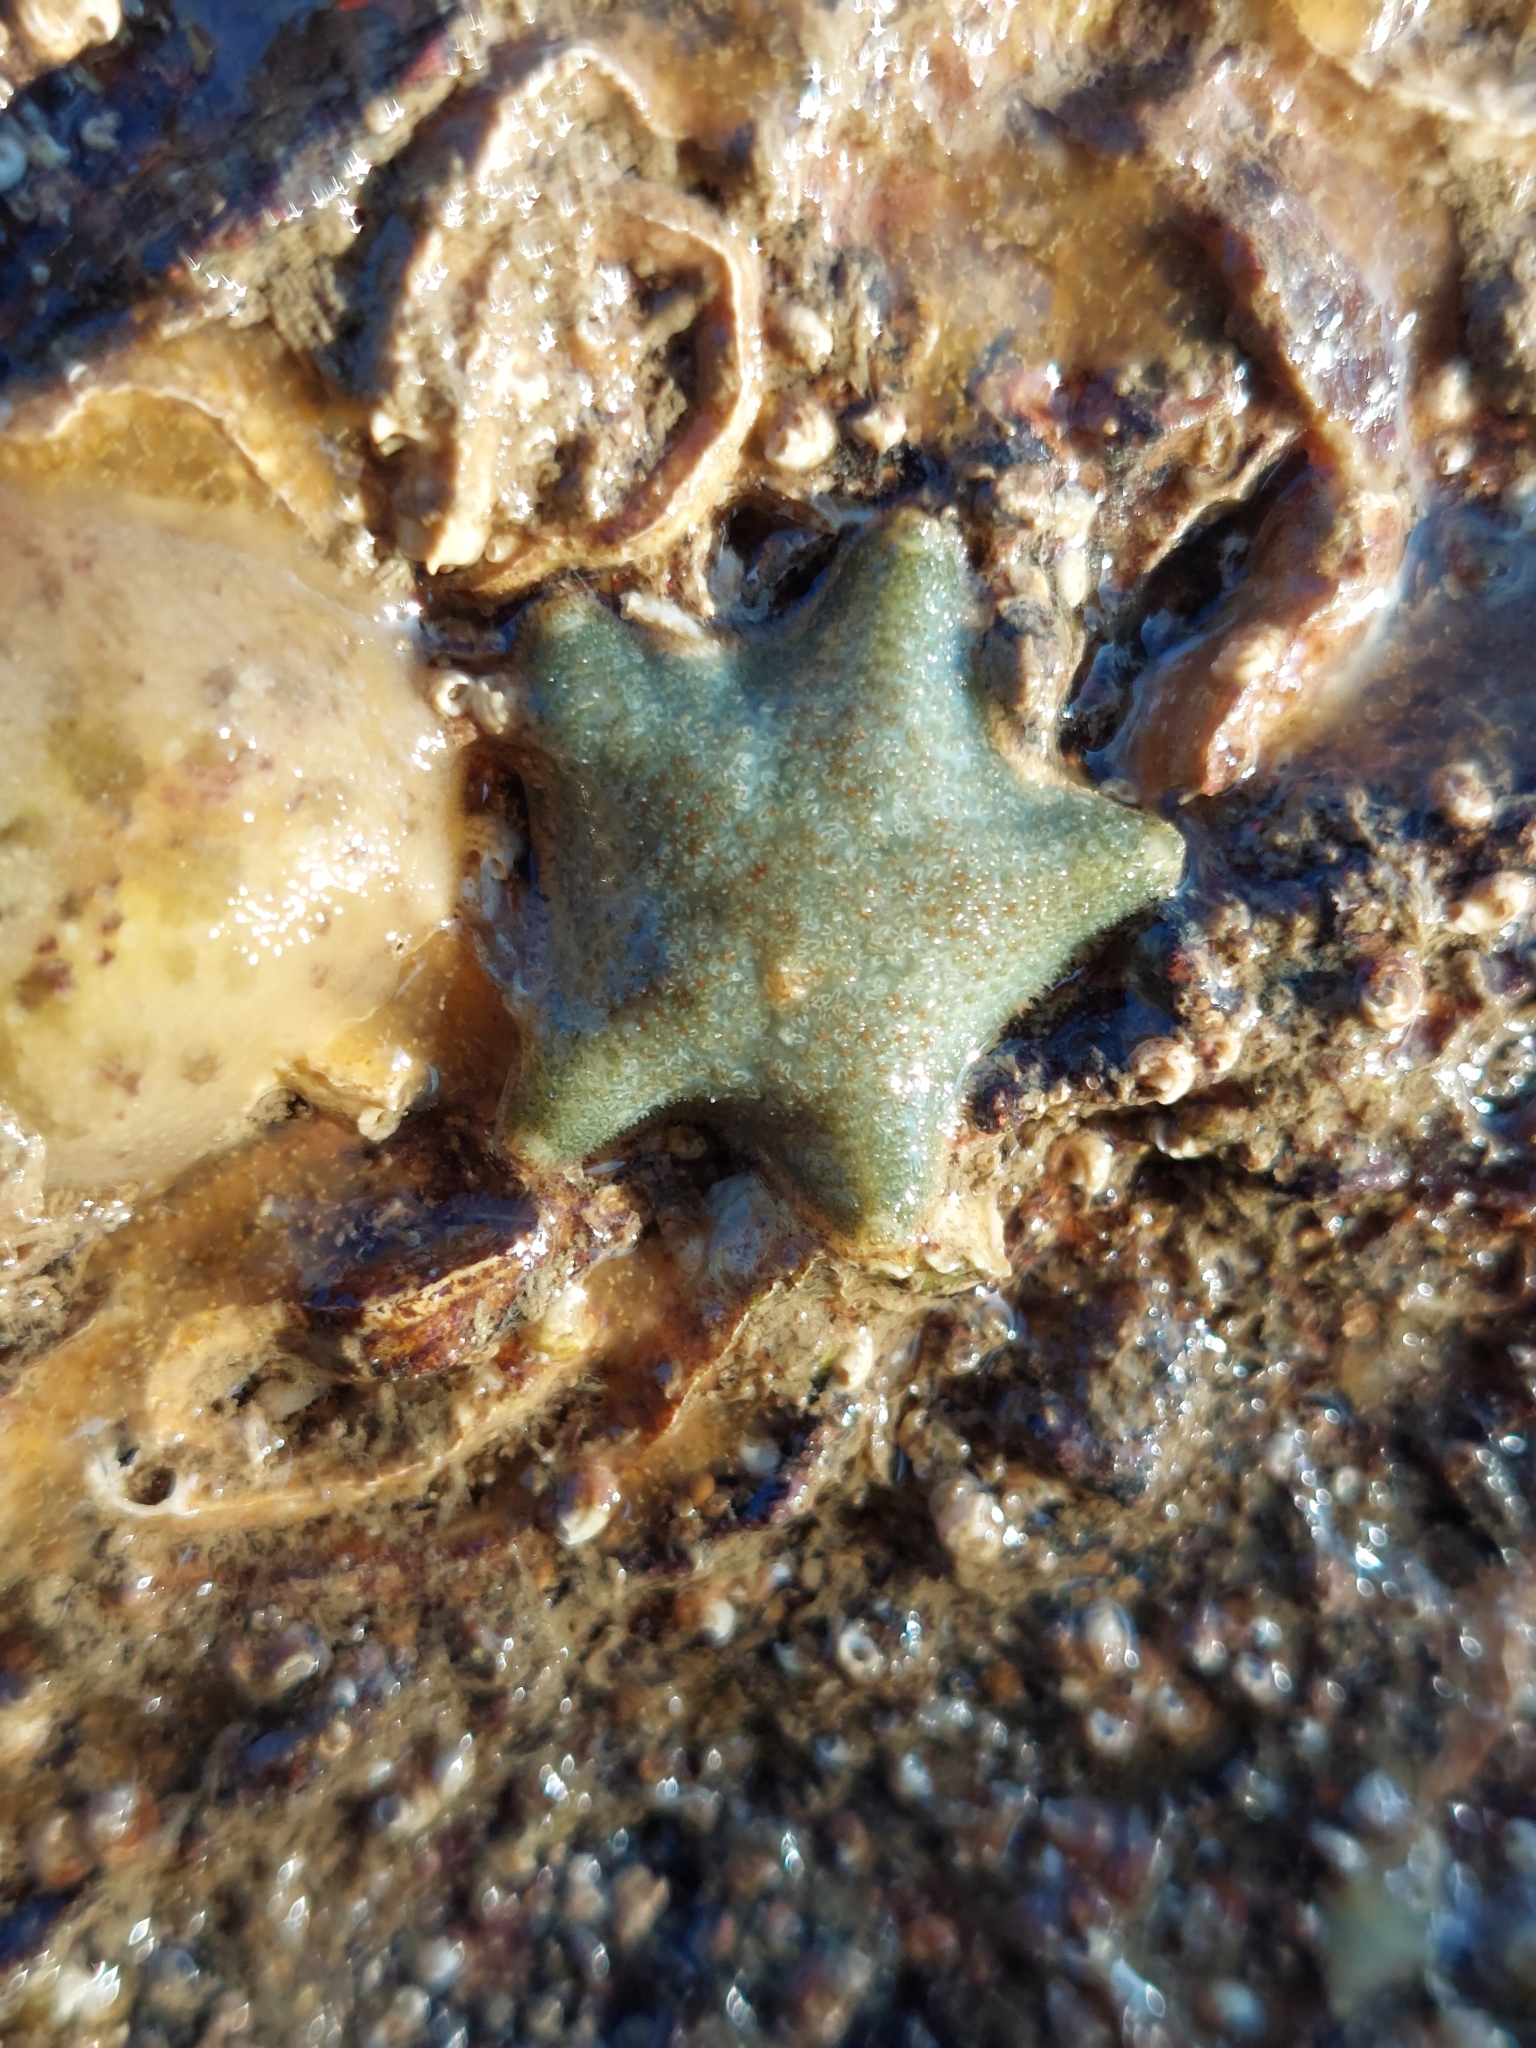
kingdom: Animalia
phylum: Echinodermata
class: Asteroidea
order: Valvatida
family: Asterinidae
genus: Asterina
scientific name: Asterina gibbosa
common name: Cushion star
